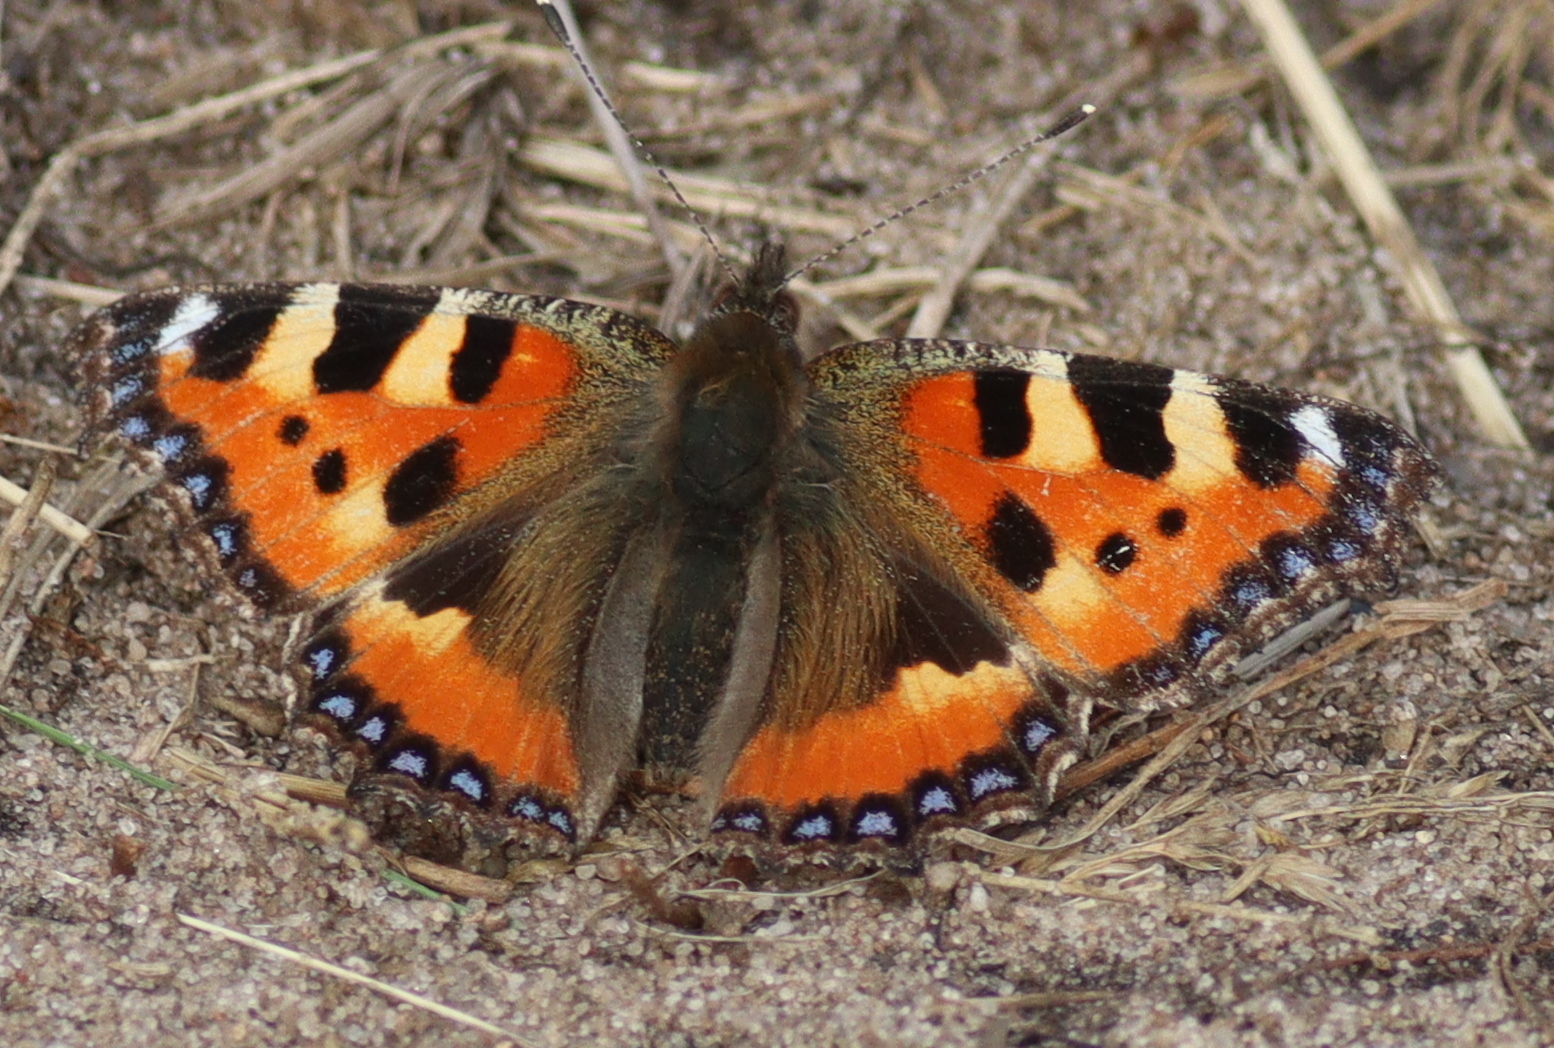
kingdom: Animalia
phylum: Arthropoda
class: Insecta
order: Lepidoptera
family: Nymphalidae
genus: Aglais
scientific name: Aglais urticae
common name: Small tortoiseshell
